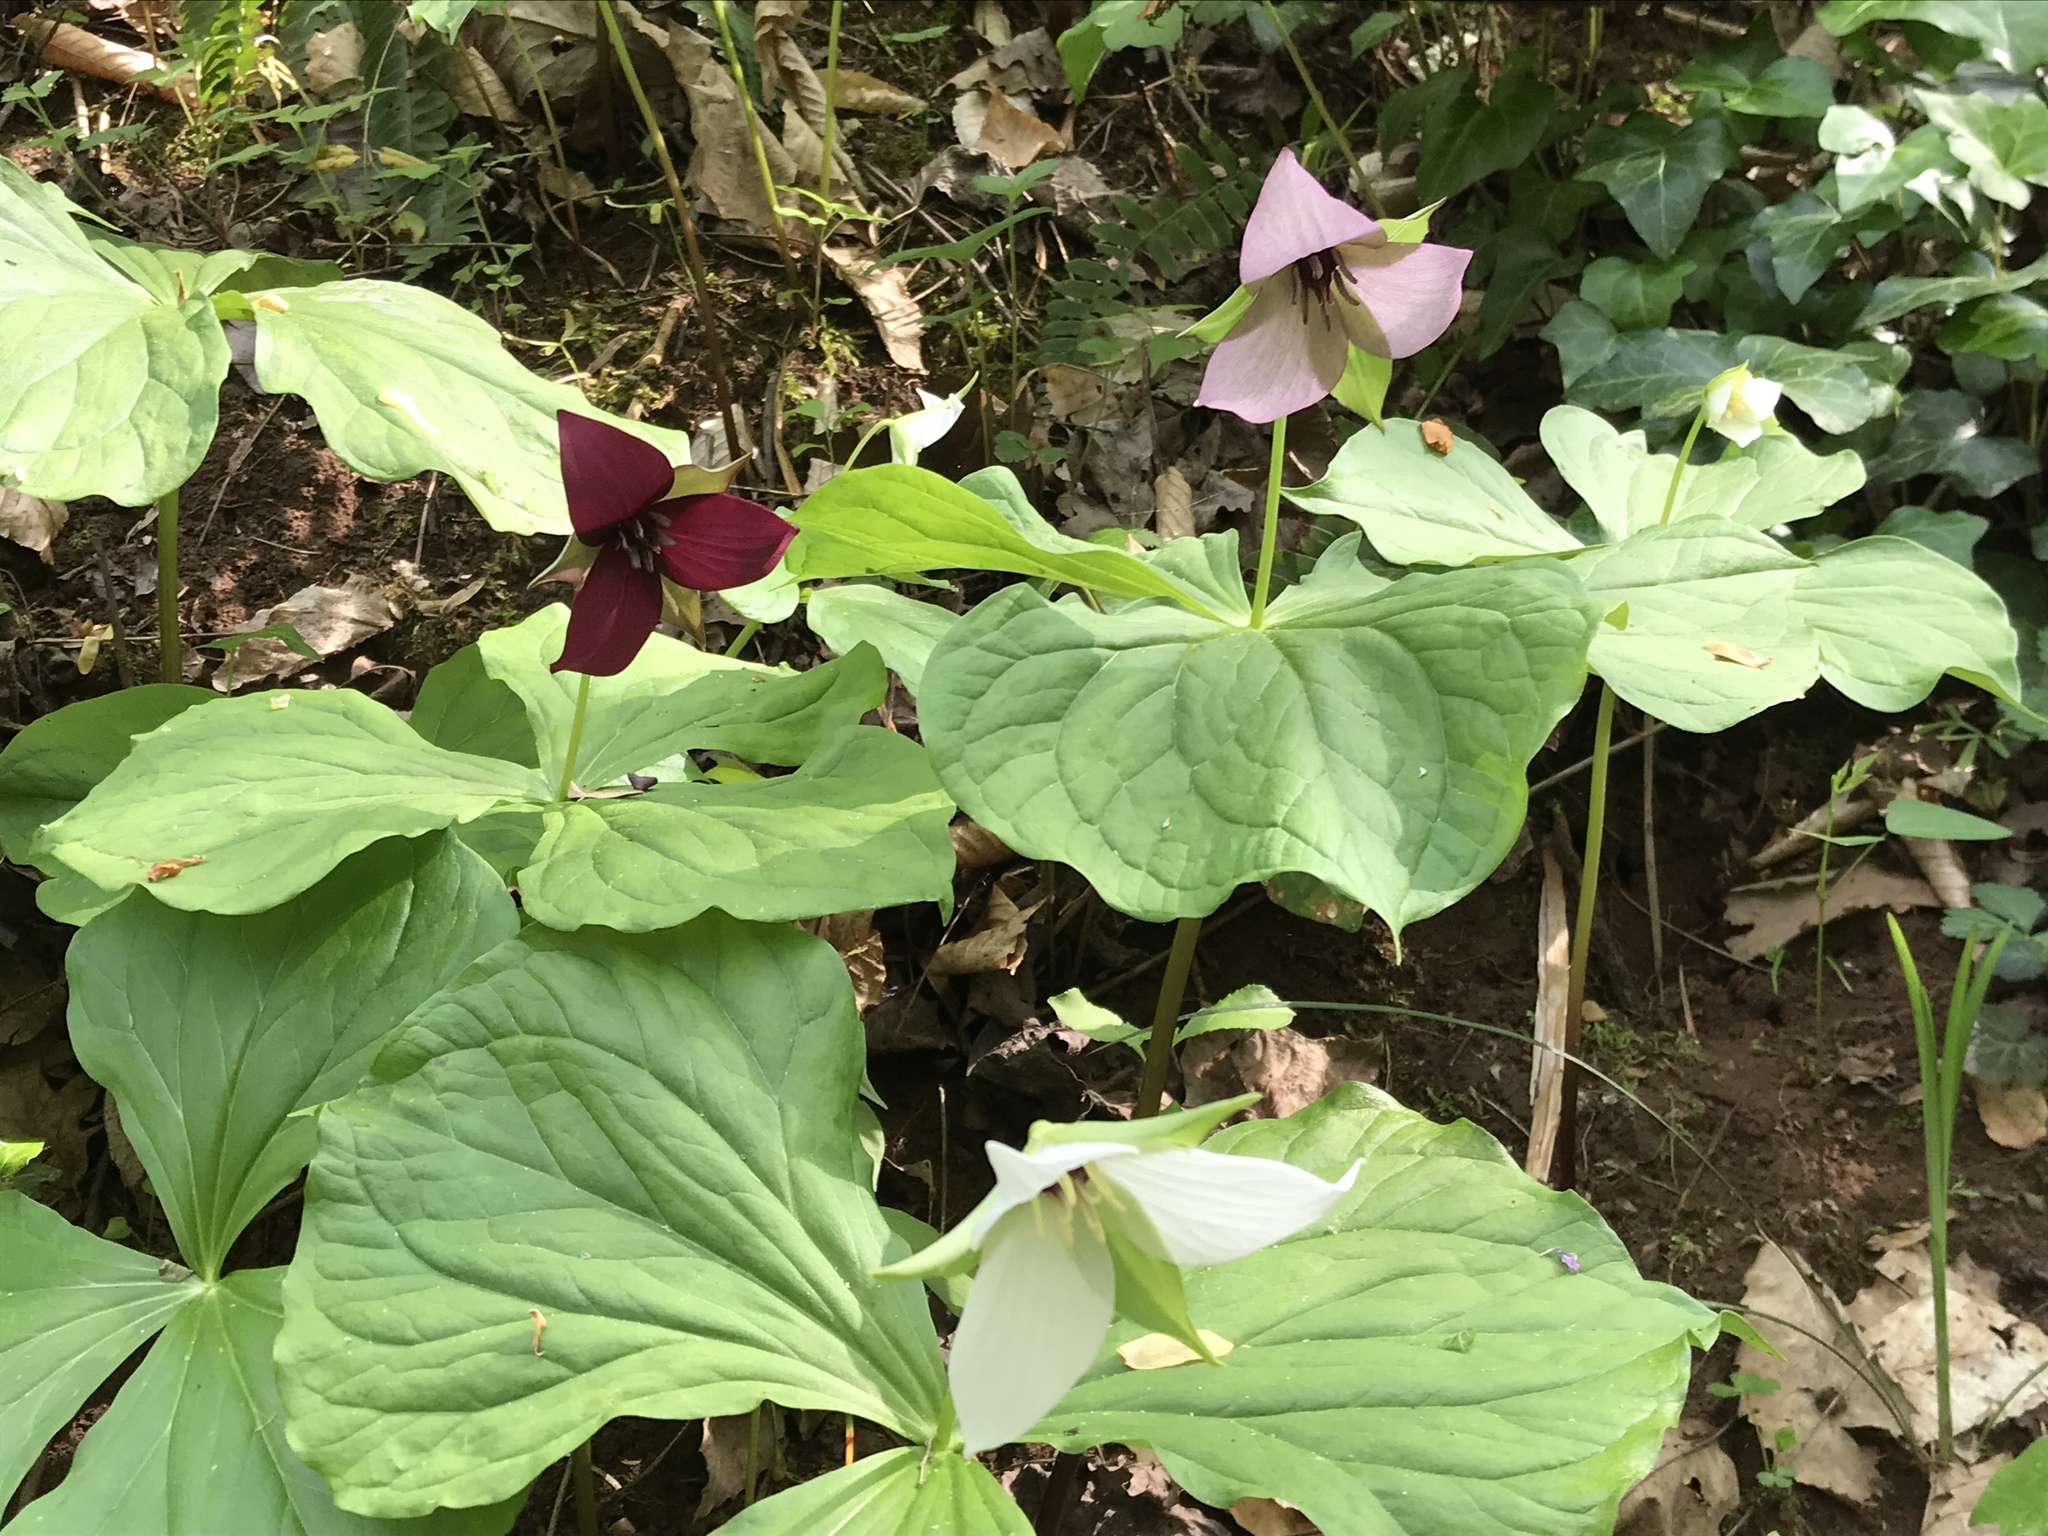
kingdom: Plantae
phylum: Tracheophyta
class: Liliopsida
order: Liliales
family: Melanthiaceae
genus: Trillium
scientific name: Trillium sulcatum
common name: Barksdale trillium
